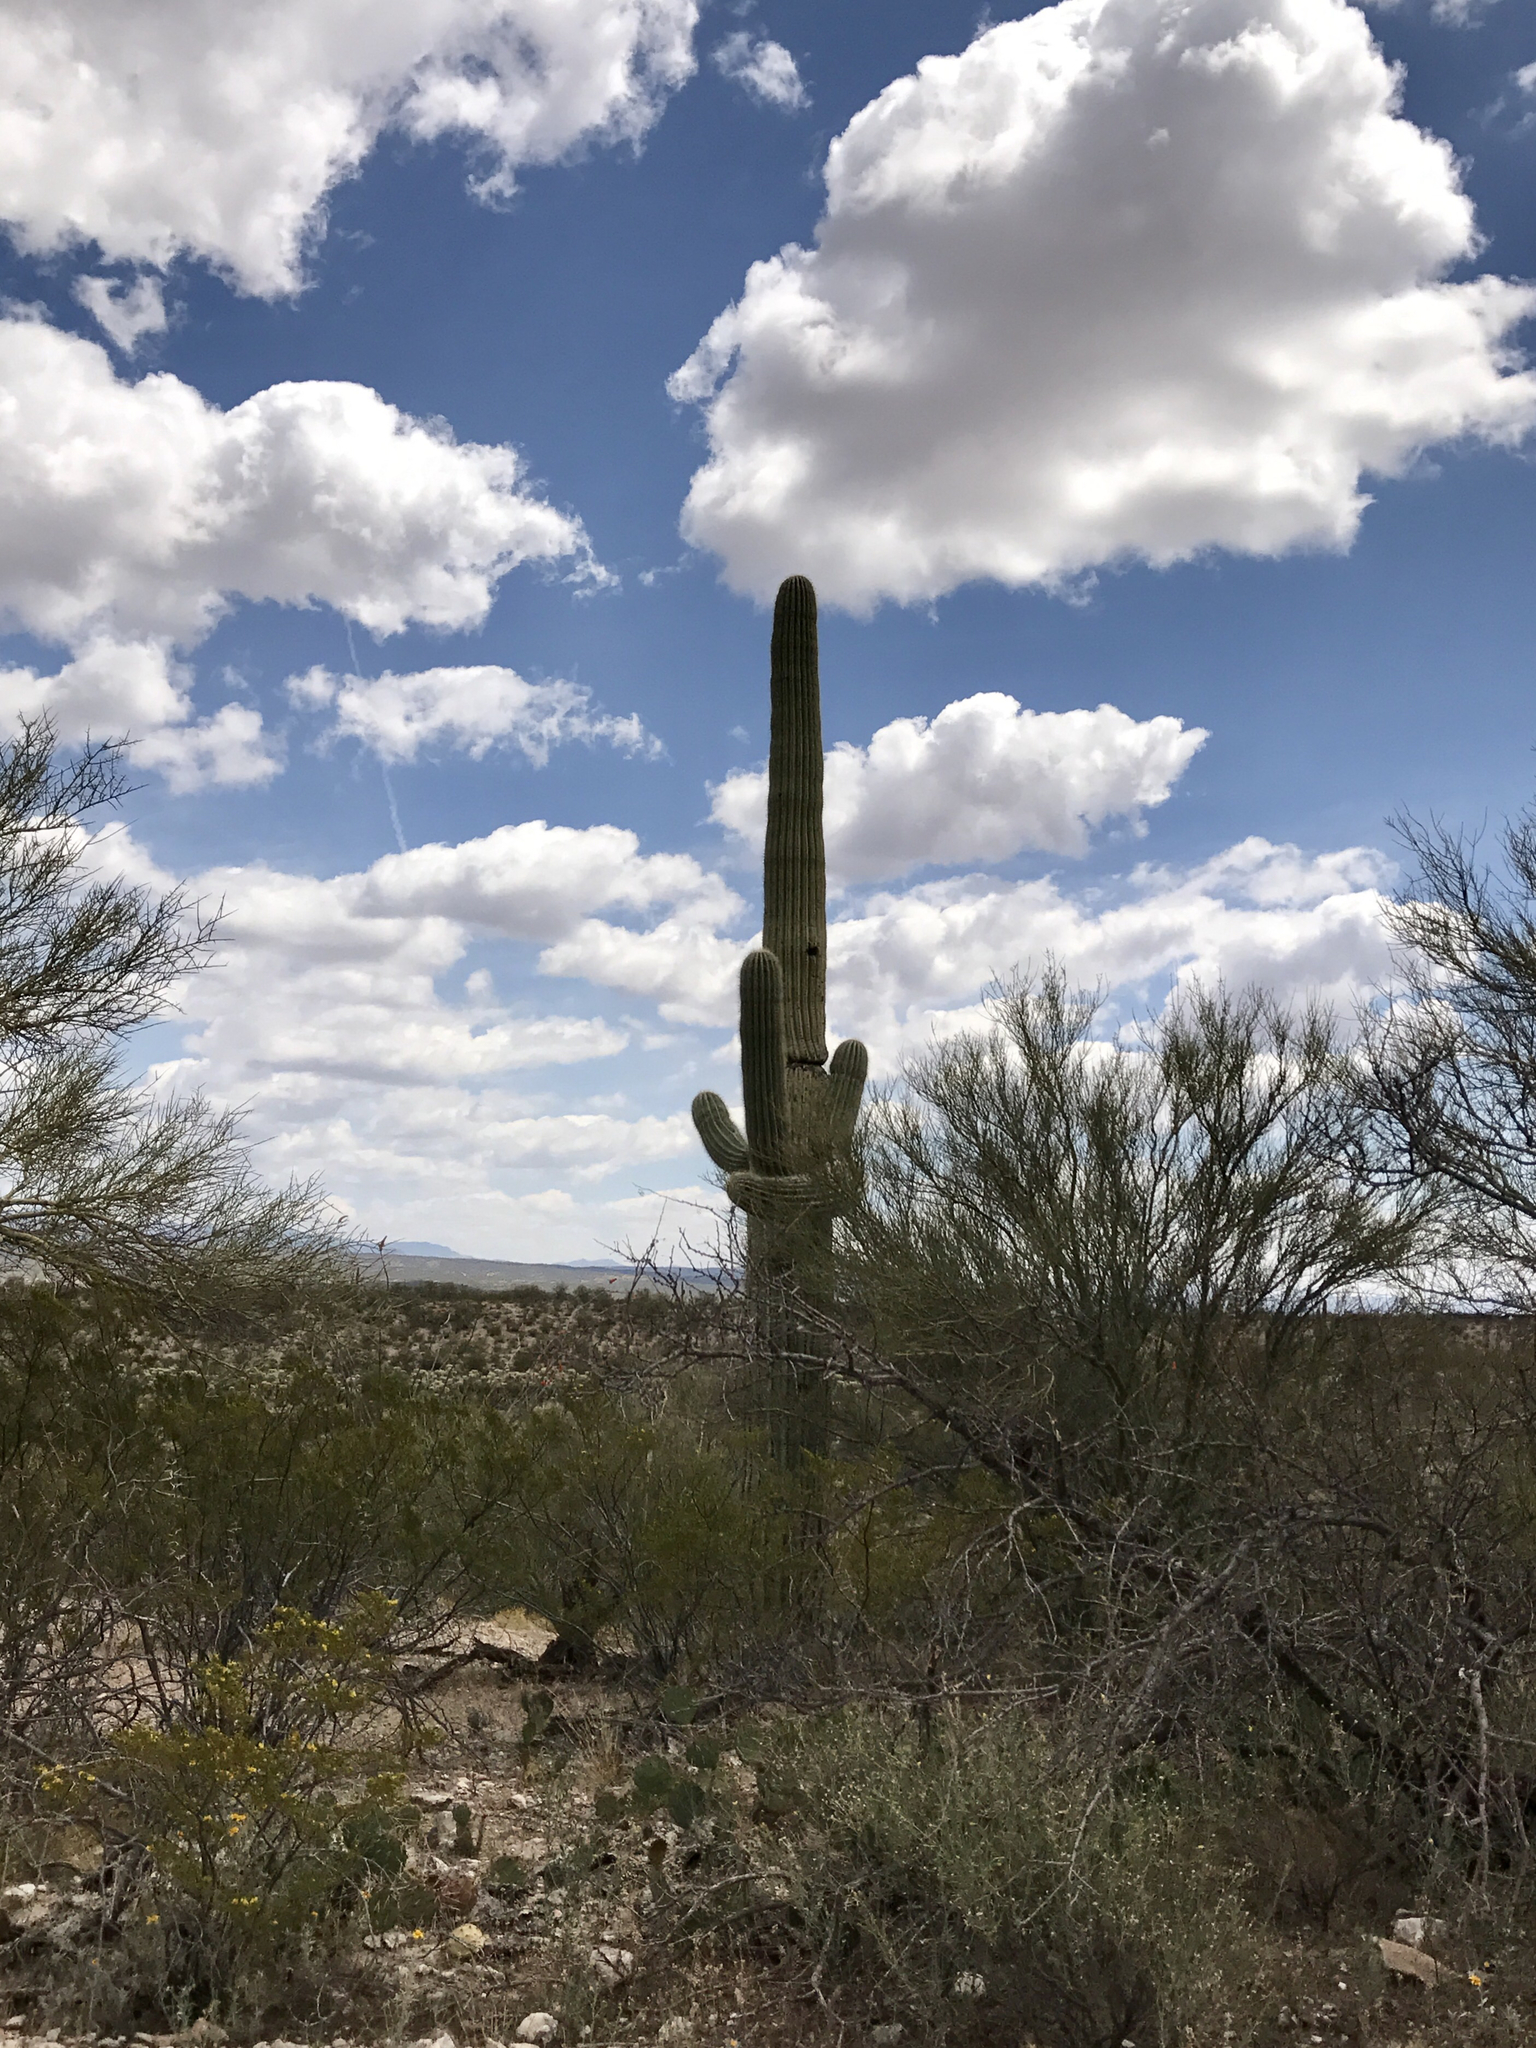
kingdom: Plantae
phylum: Tracheophyta
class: Magnoliopsida
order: Caryophyllales
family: Cactaceae
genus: Carnegiea
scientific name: Carnegiea gigantea
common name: Saguaro
